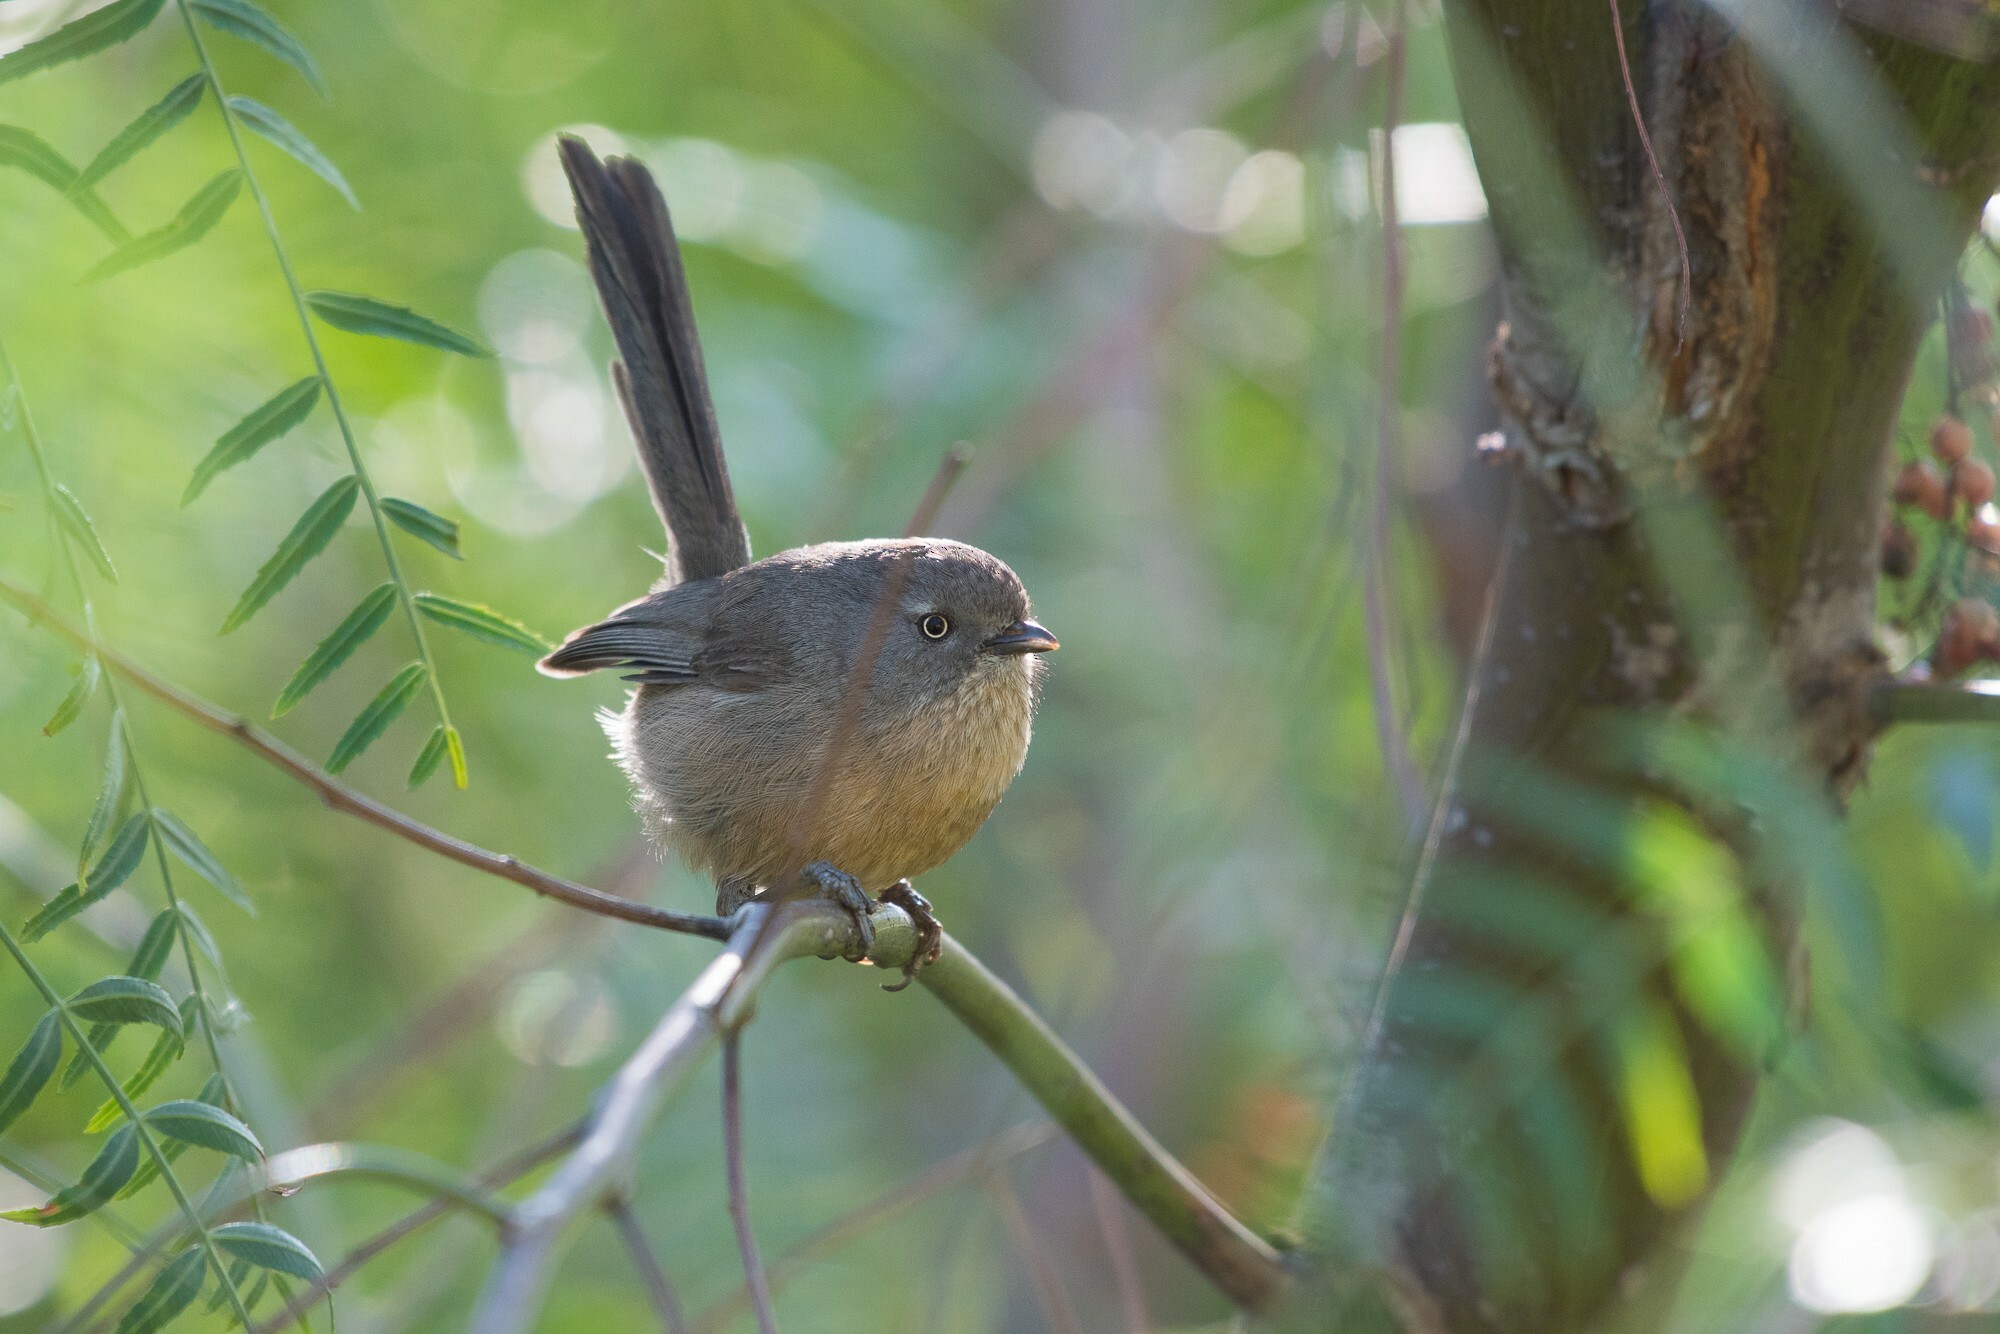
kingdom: Animalia
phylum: Chordata
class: Aves
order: Passeriformes
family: Sylviidae
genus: Chamaea
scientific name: Chamaea fasciata
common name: Wrentit
